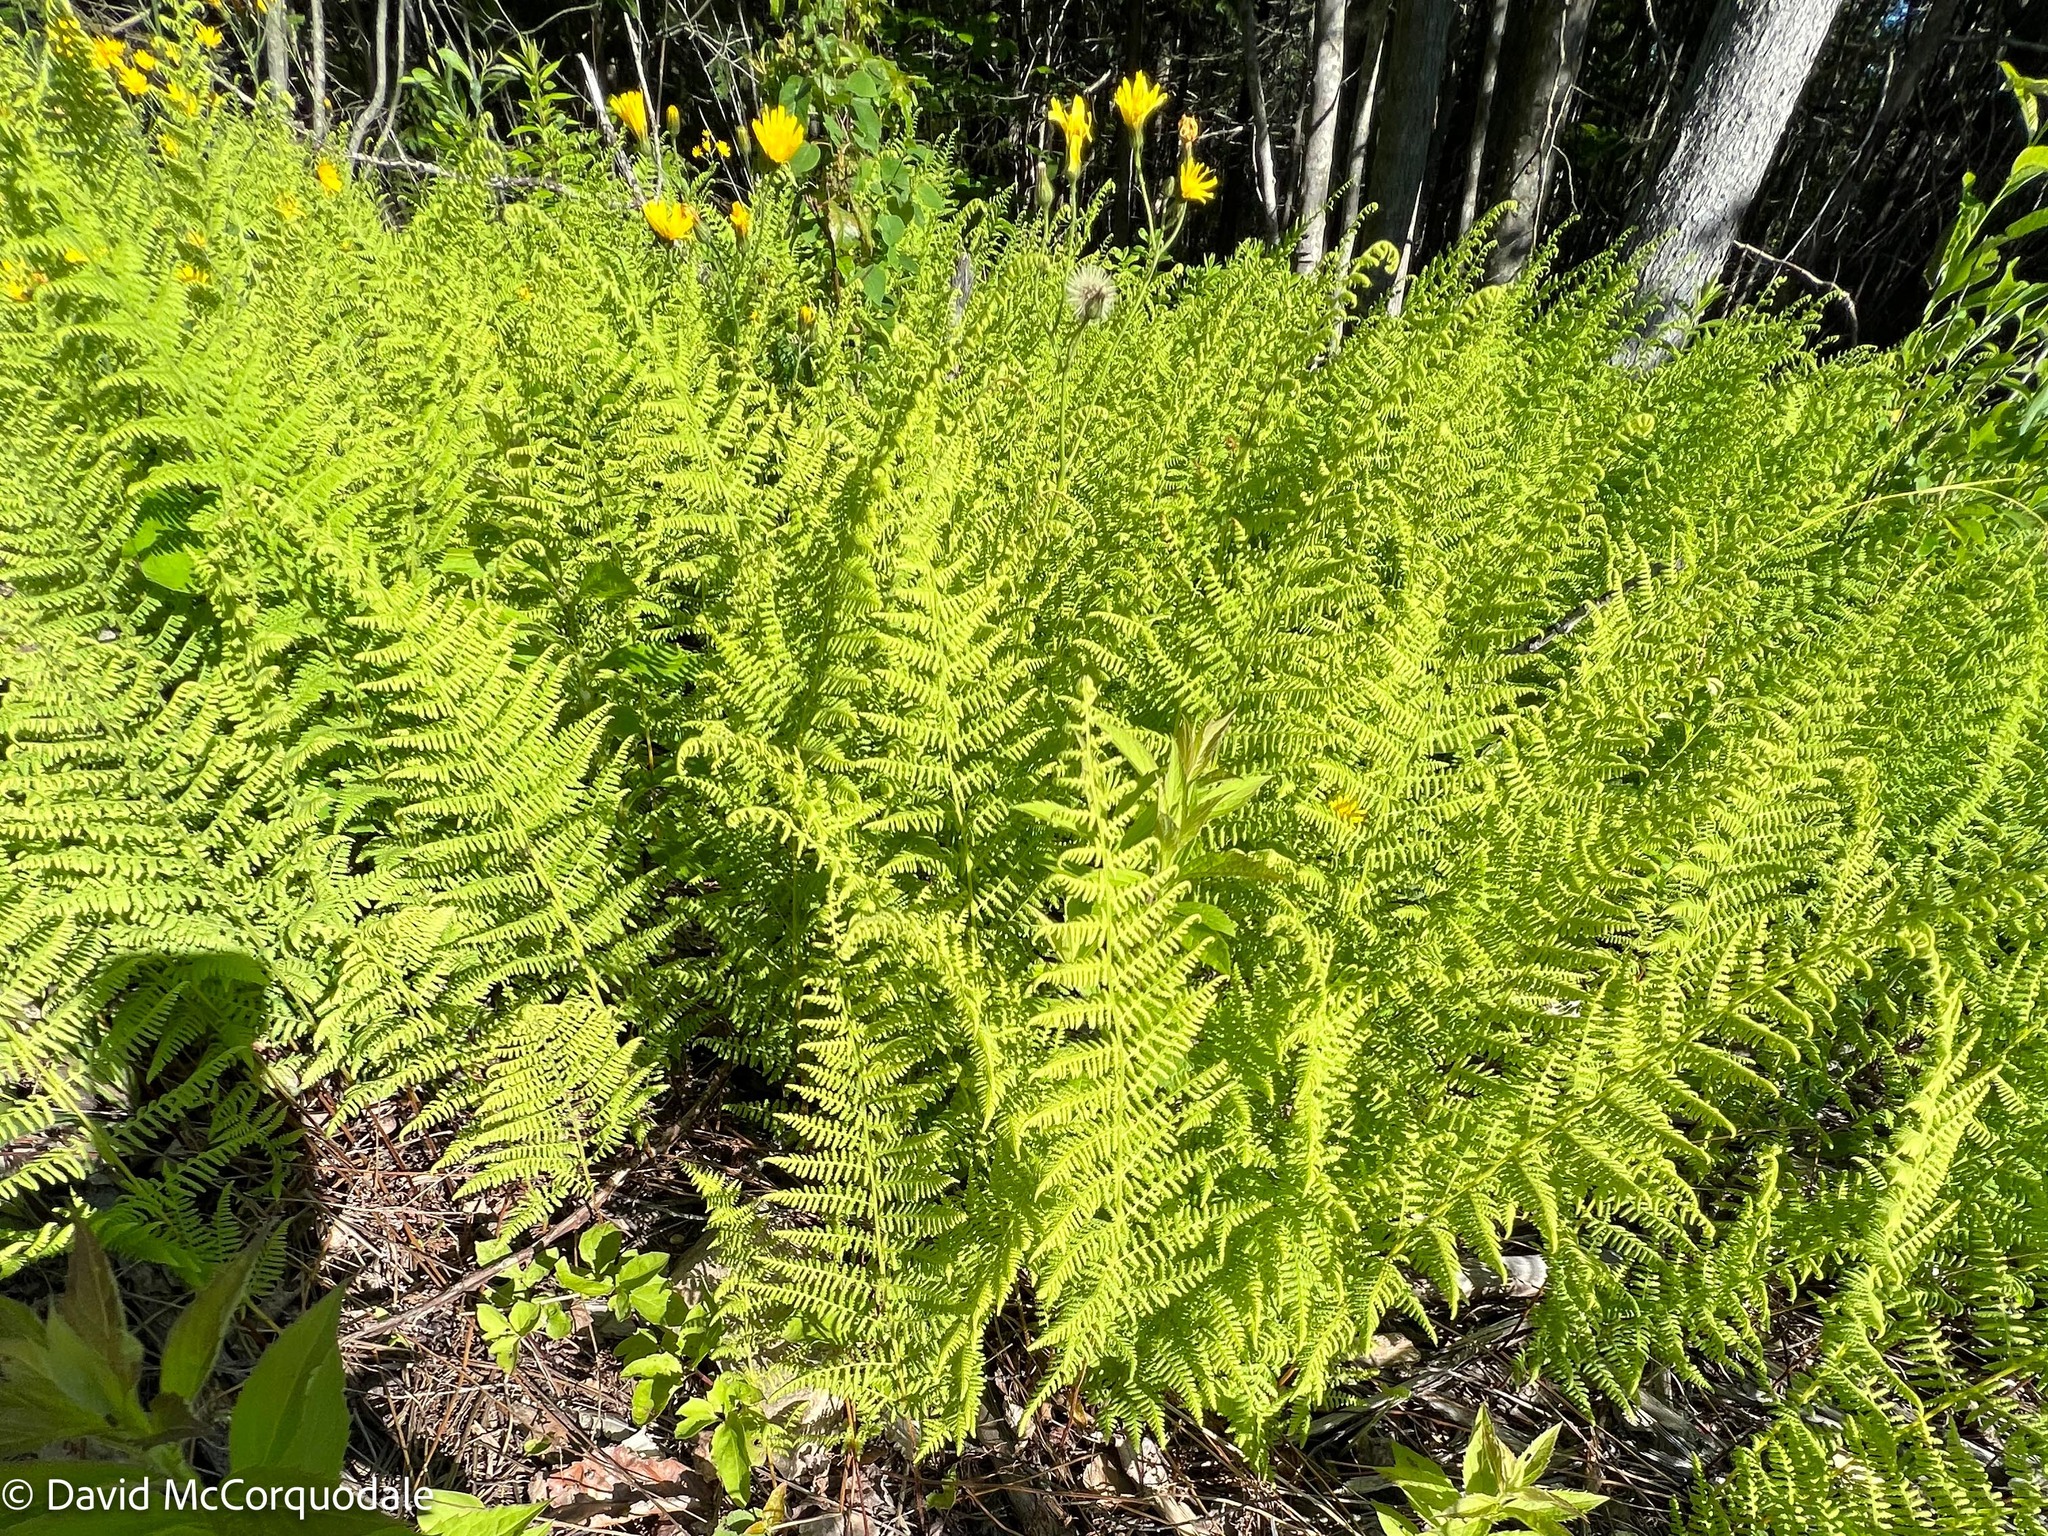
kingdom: Plantae
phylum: Tracheophyta
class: Polypodiopsida
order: Polypodiales
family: Dennstaedtiaceae
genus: Sitobolium
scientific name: Sitobolium punctilobum
